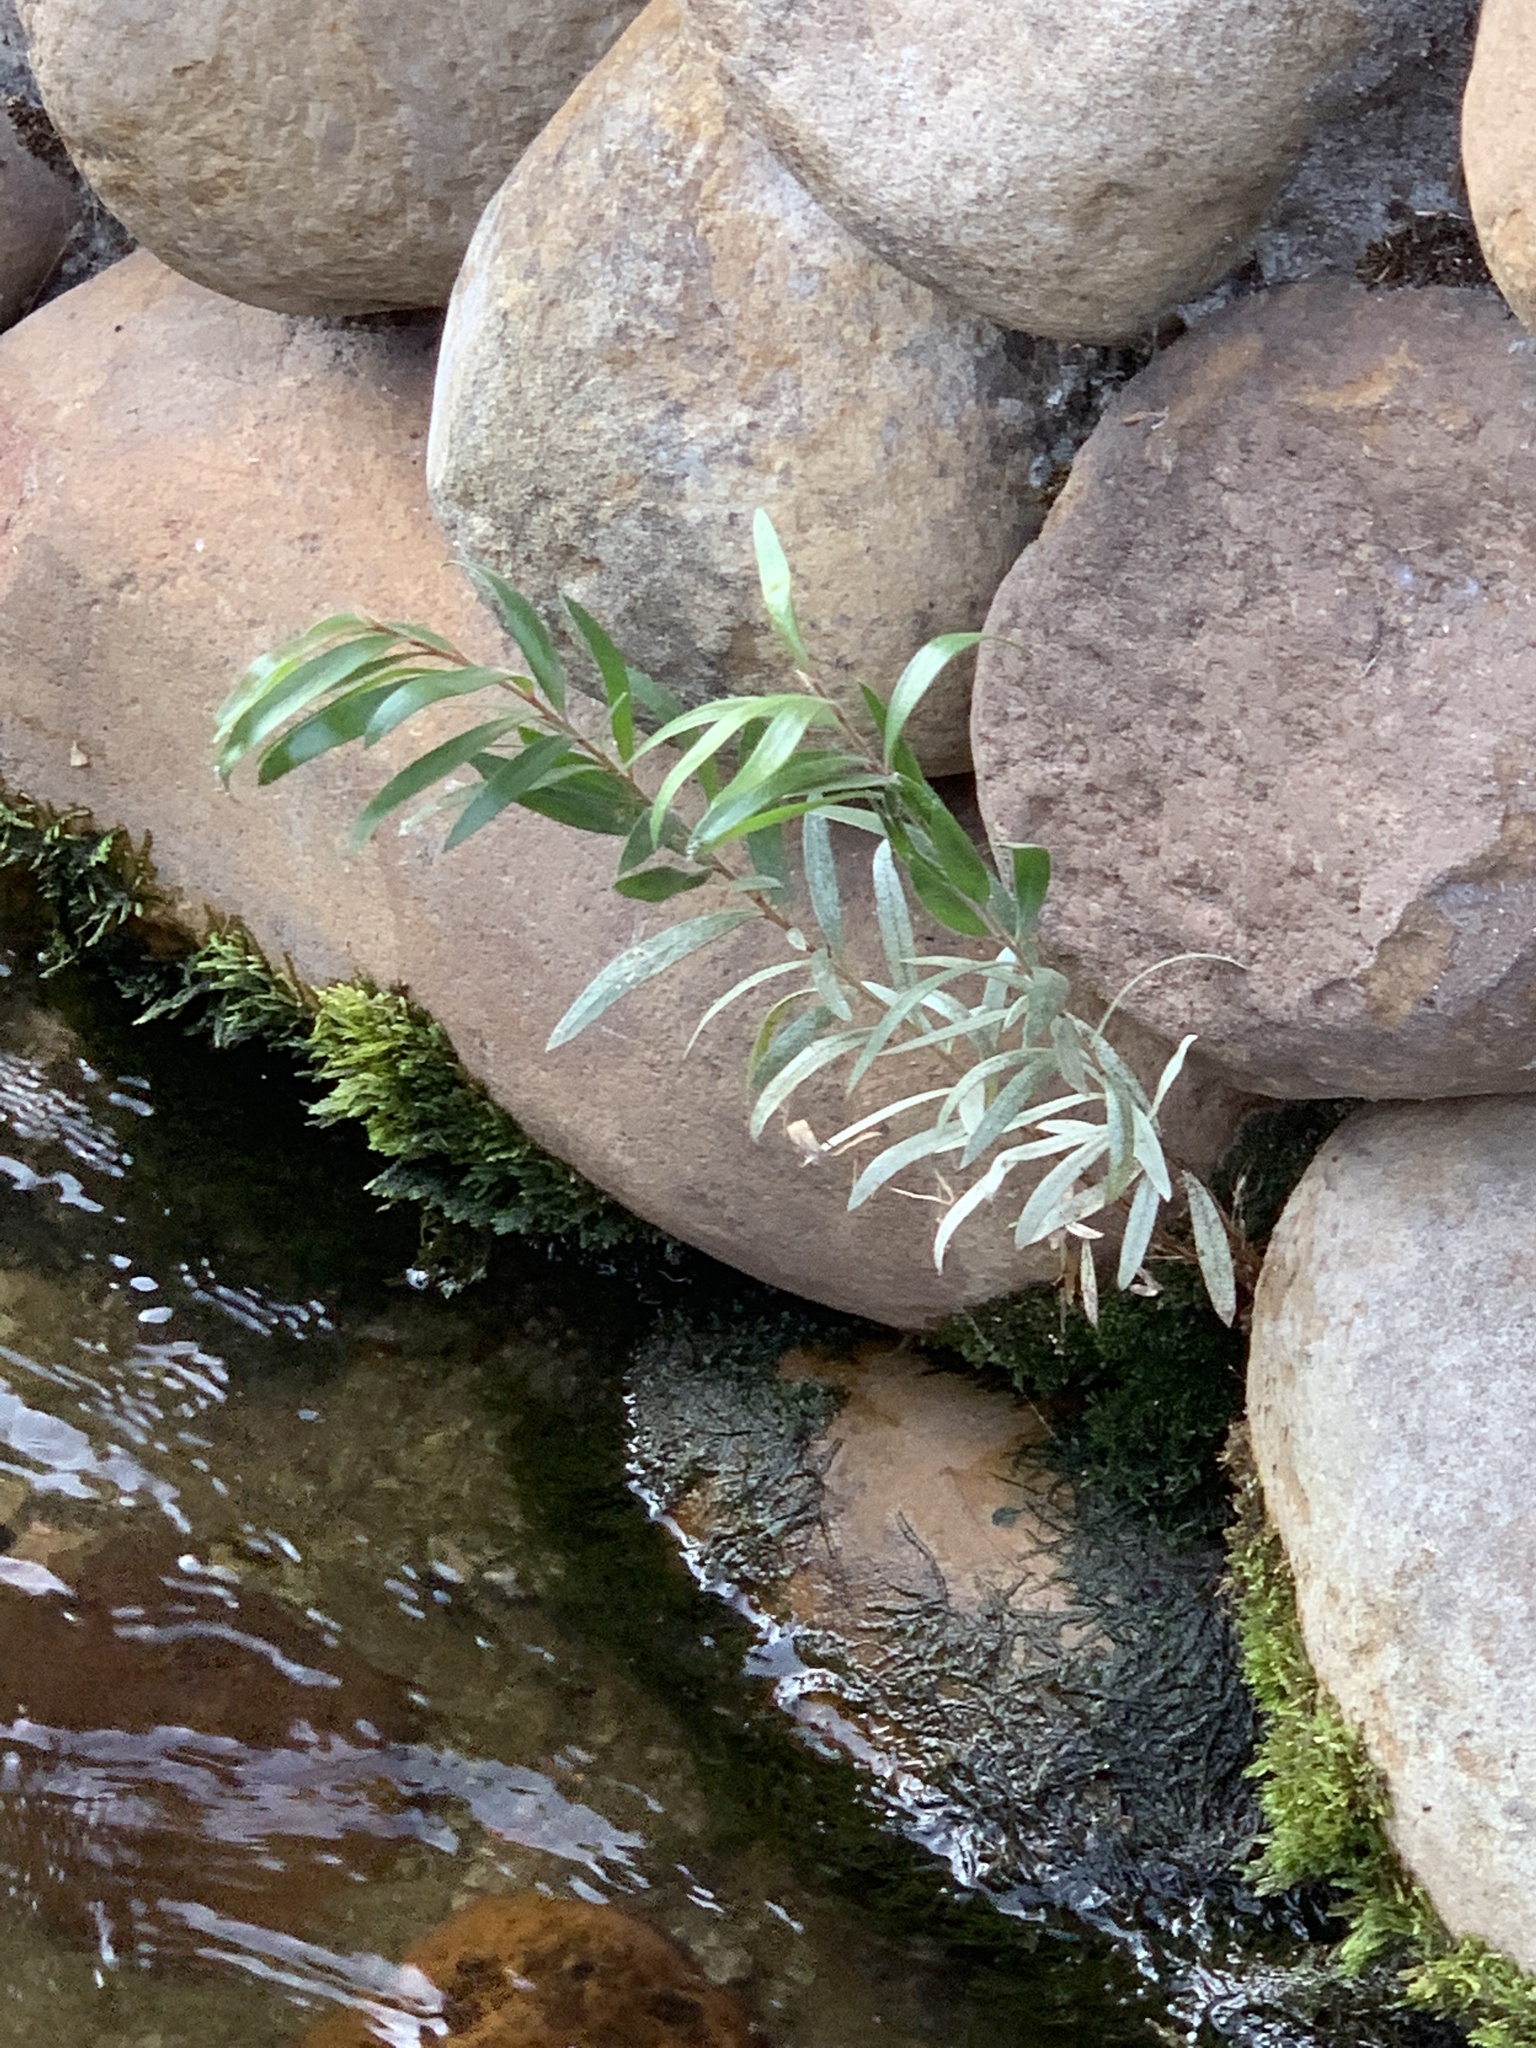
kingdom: Plantae
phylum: Tracheophyta
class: Magnoliopsida
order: Myrtales
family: Myrtaceae
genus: Callistemon
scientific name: Callistemon viminalis
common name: Drooping bottlebrush
